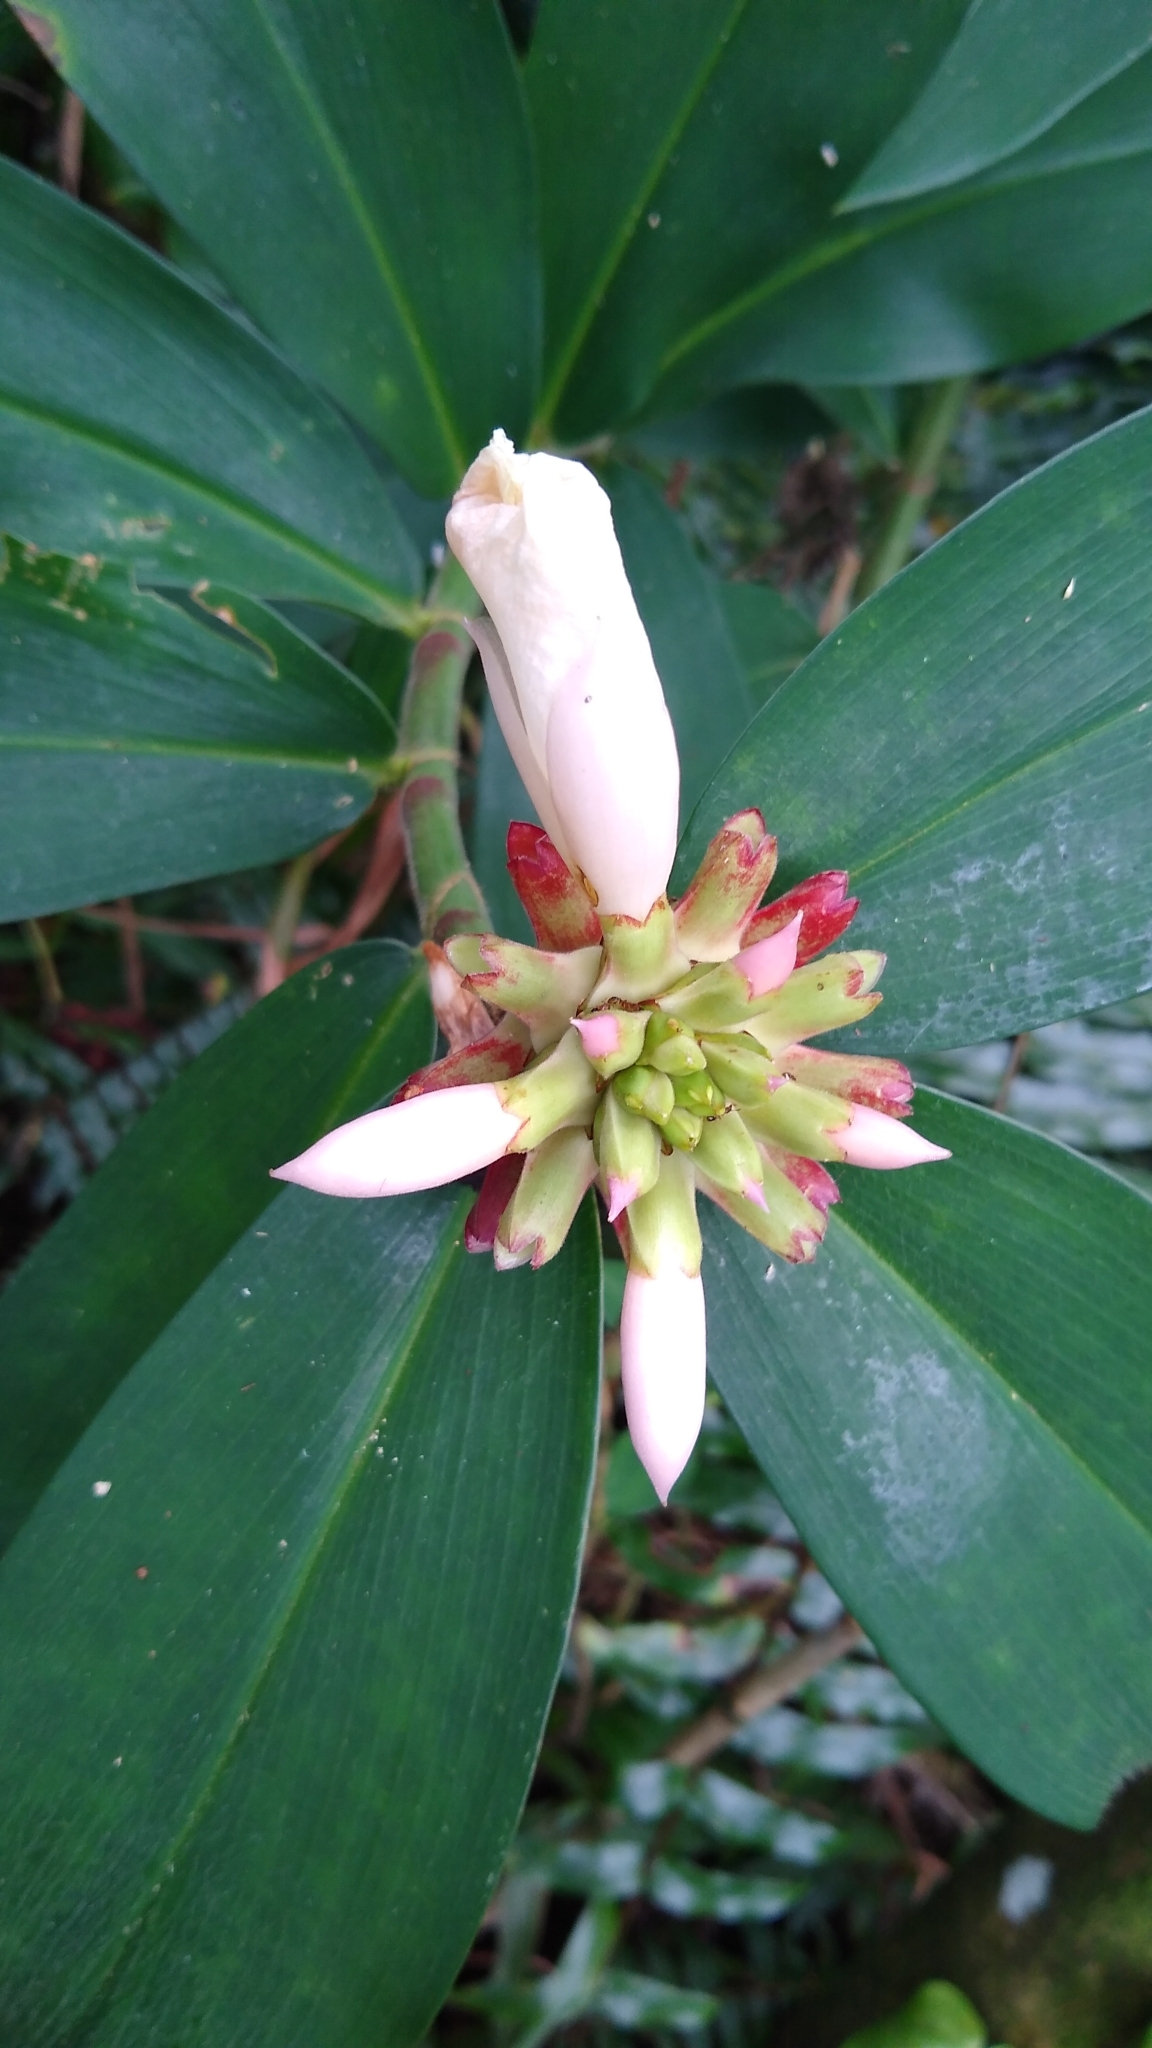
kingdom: Plantae
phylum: Tracheophyta
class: Liliopsida
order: Zingiberales
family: Costaceae
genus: Hellenia
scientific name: Hellenia speciosa
